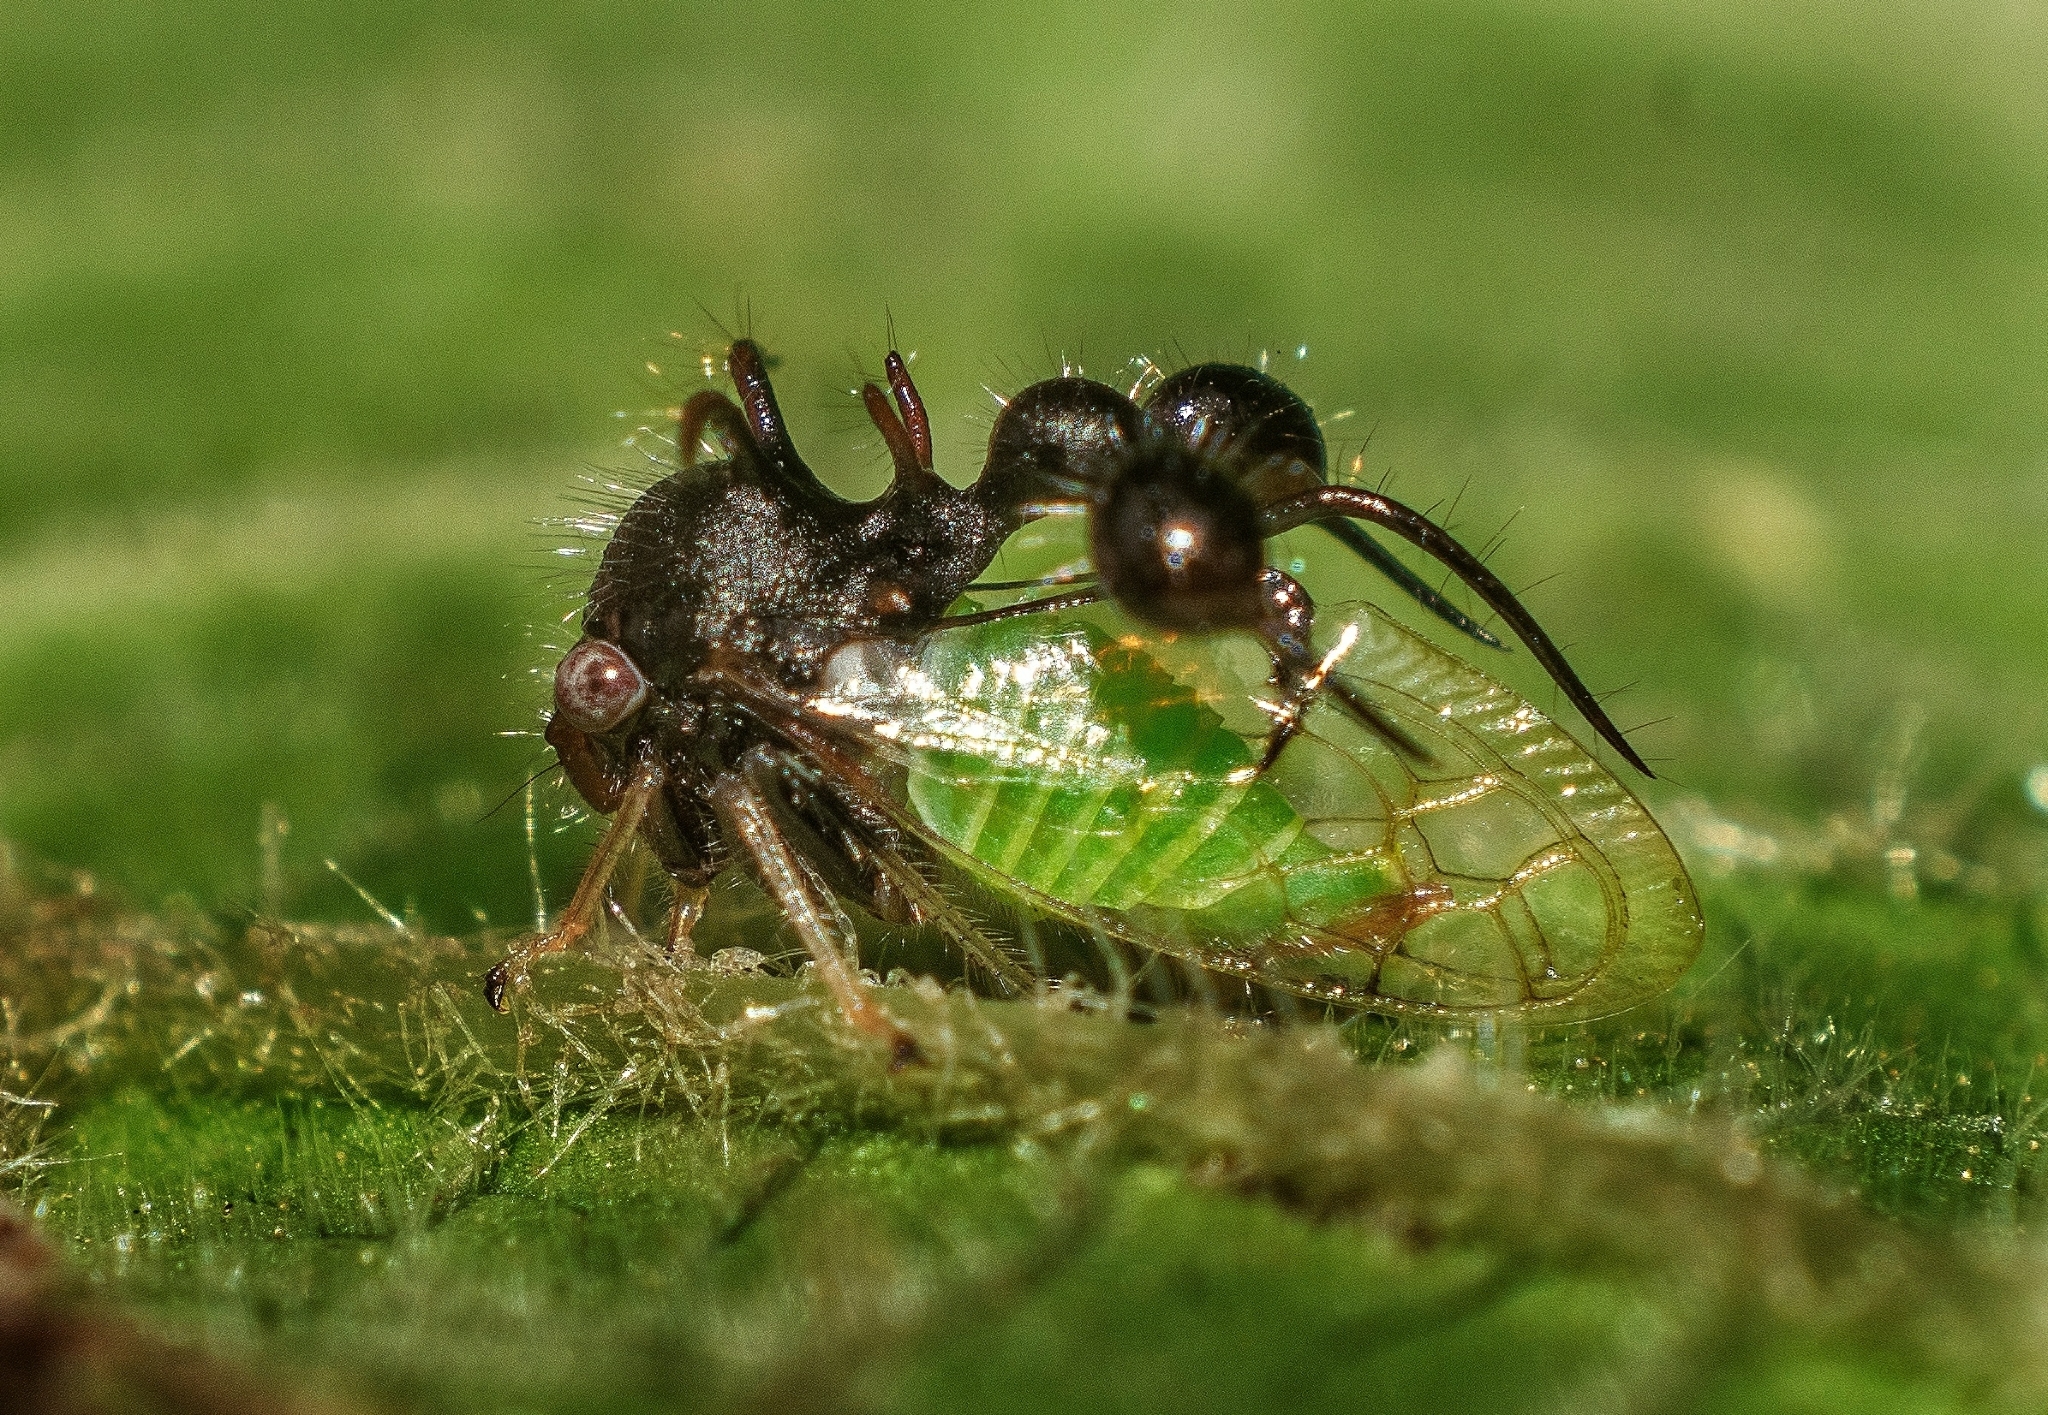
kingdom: Animalia
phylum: Arthropoda
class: Insecta
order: Hemiptera
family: Membracidae
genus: Cyphonia
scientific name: Cyphonia clavata
